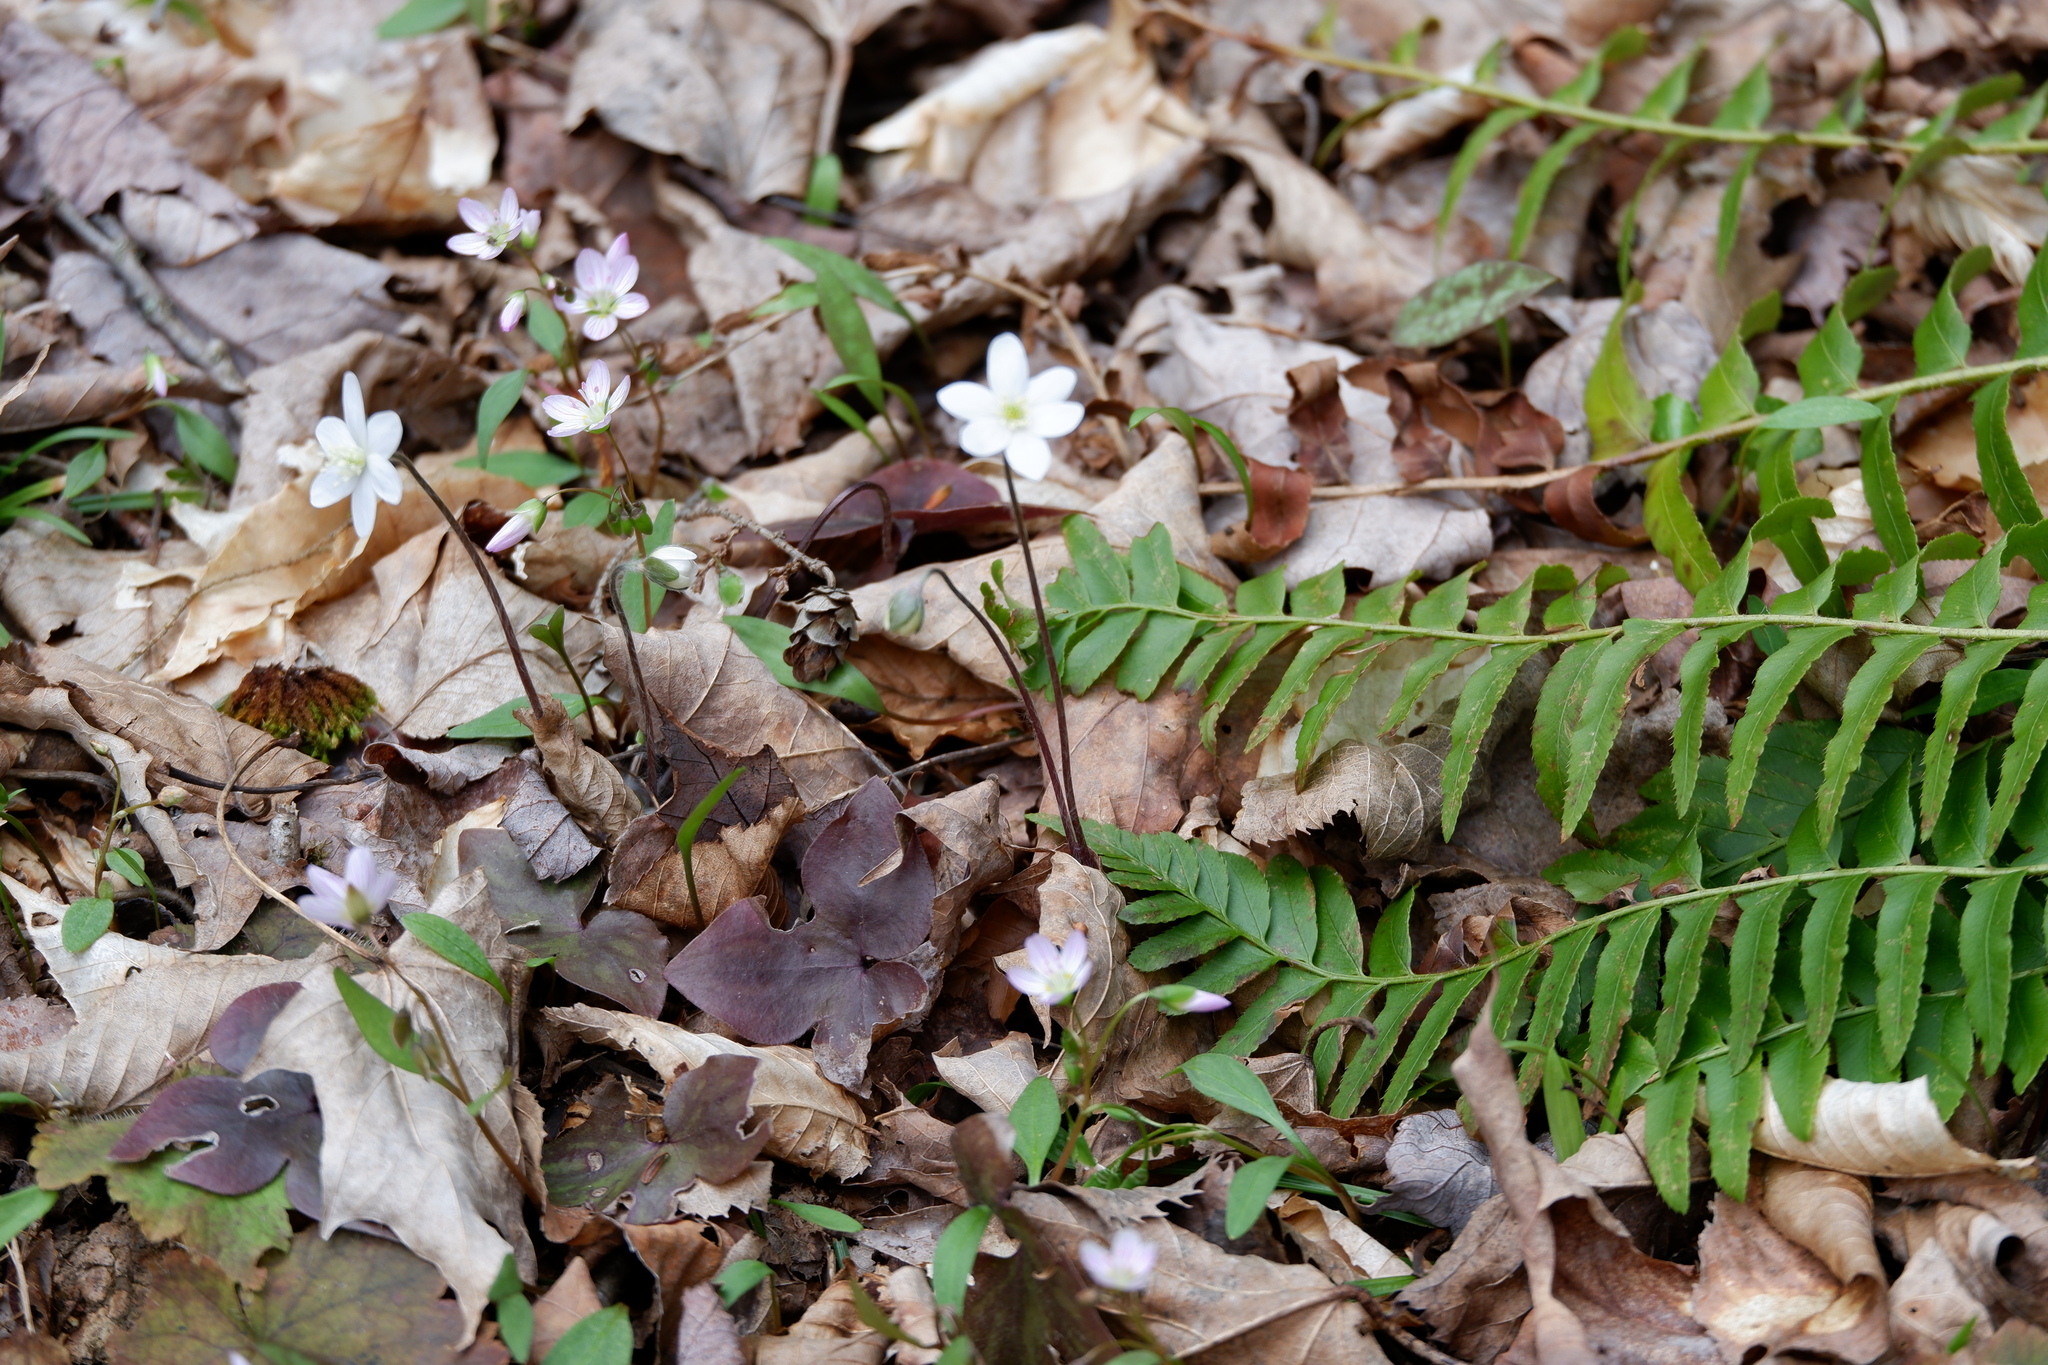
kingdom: Plantae
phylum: Tracheophyta
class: Magnoliopsida
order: Ranunculales
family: Ranunculaceae
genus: Hepatica
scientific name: Hepatica acutiloba
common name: Sharp-lobed hepatica
